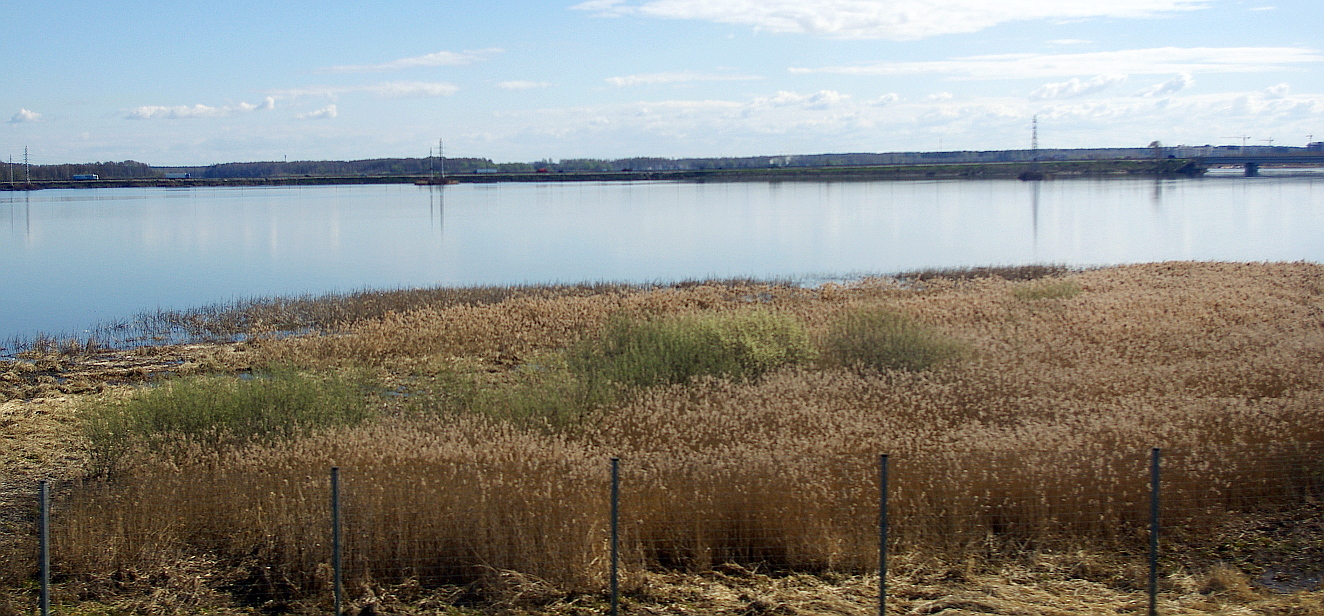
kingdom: Plantae
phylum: Tracheophyta
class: Liliopsida
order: Poales
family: Poaceae
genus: Phragmites
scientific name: Phragmites australis
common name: Common reed
